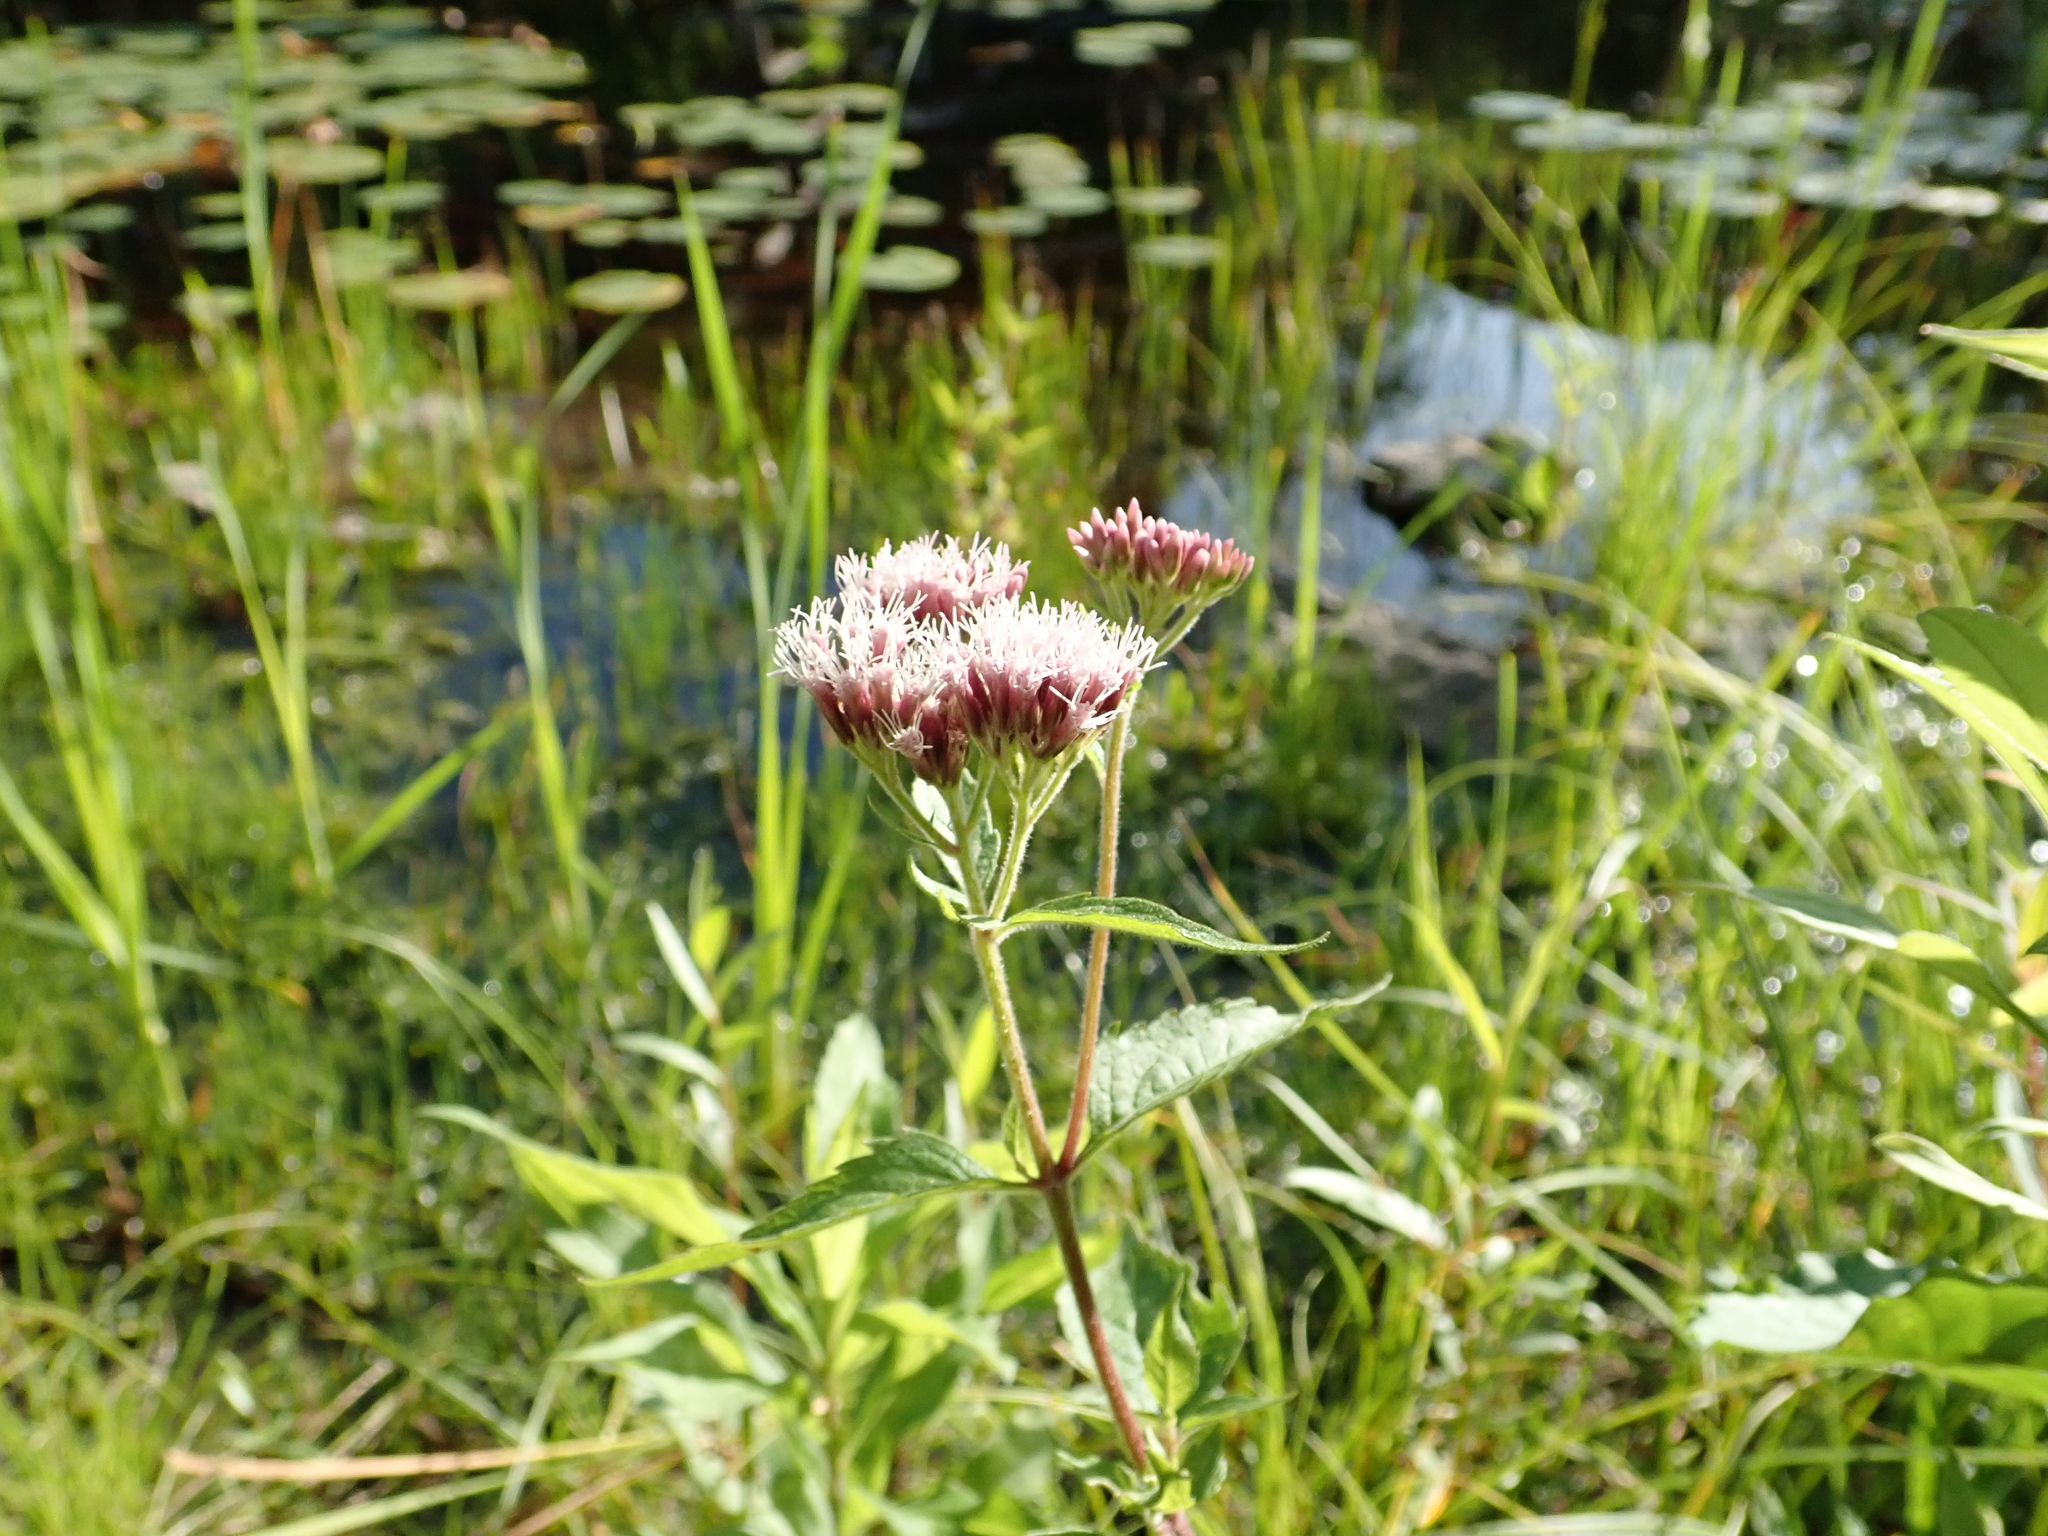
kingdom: Plantae
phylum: Tracheophyta
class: Magnoliopsida
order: Asterales
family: Asteraceae
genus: Eupatorium
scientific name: Eupatorium cannabinum
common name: Hemp-agrimony
